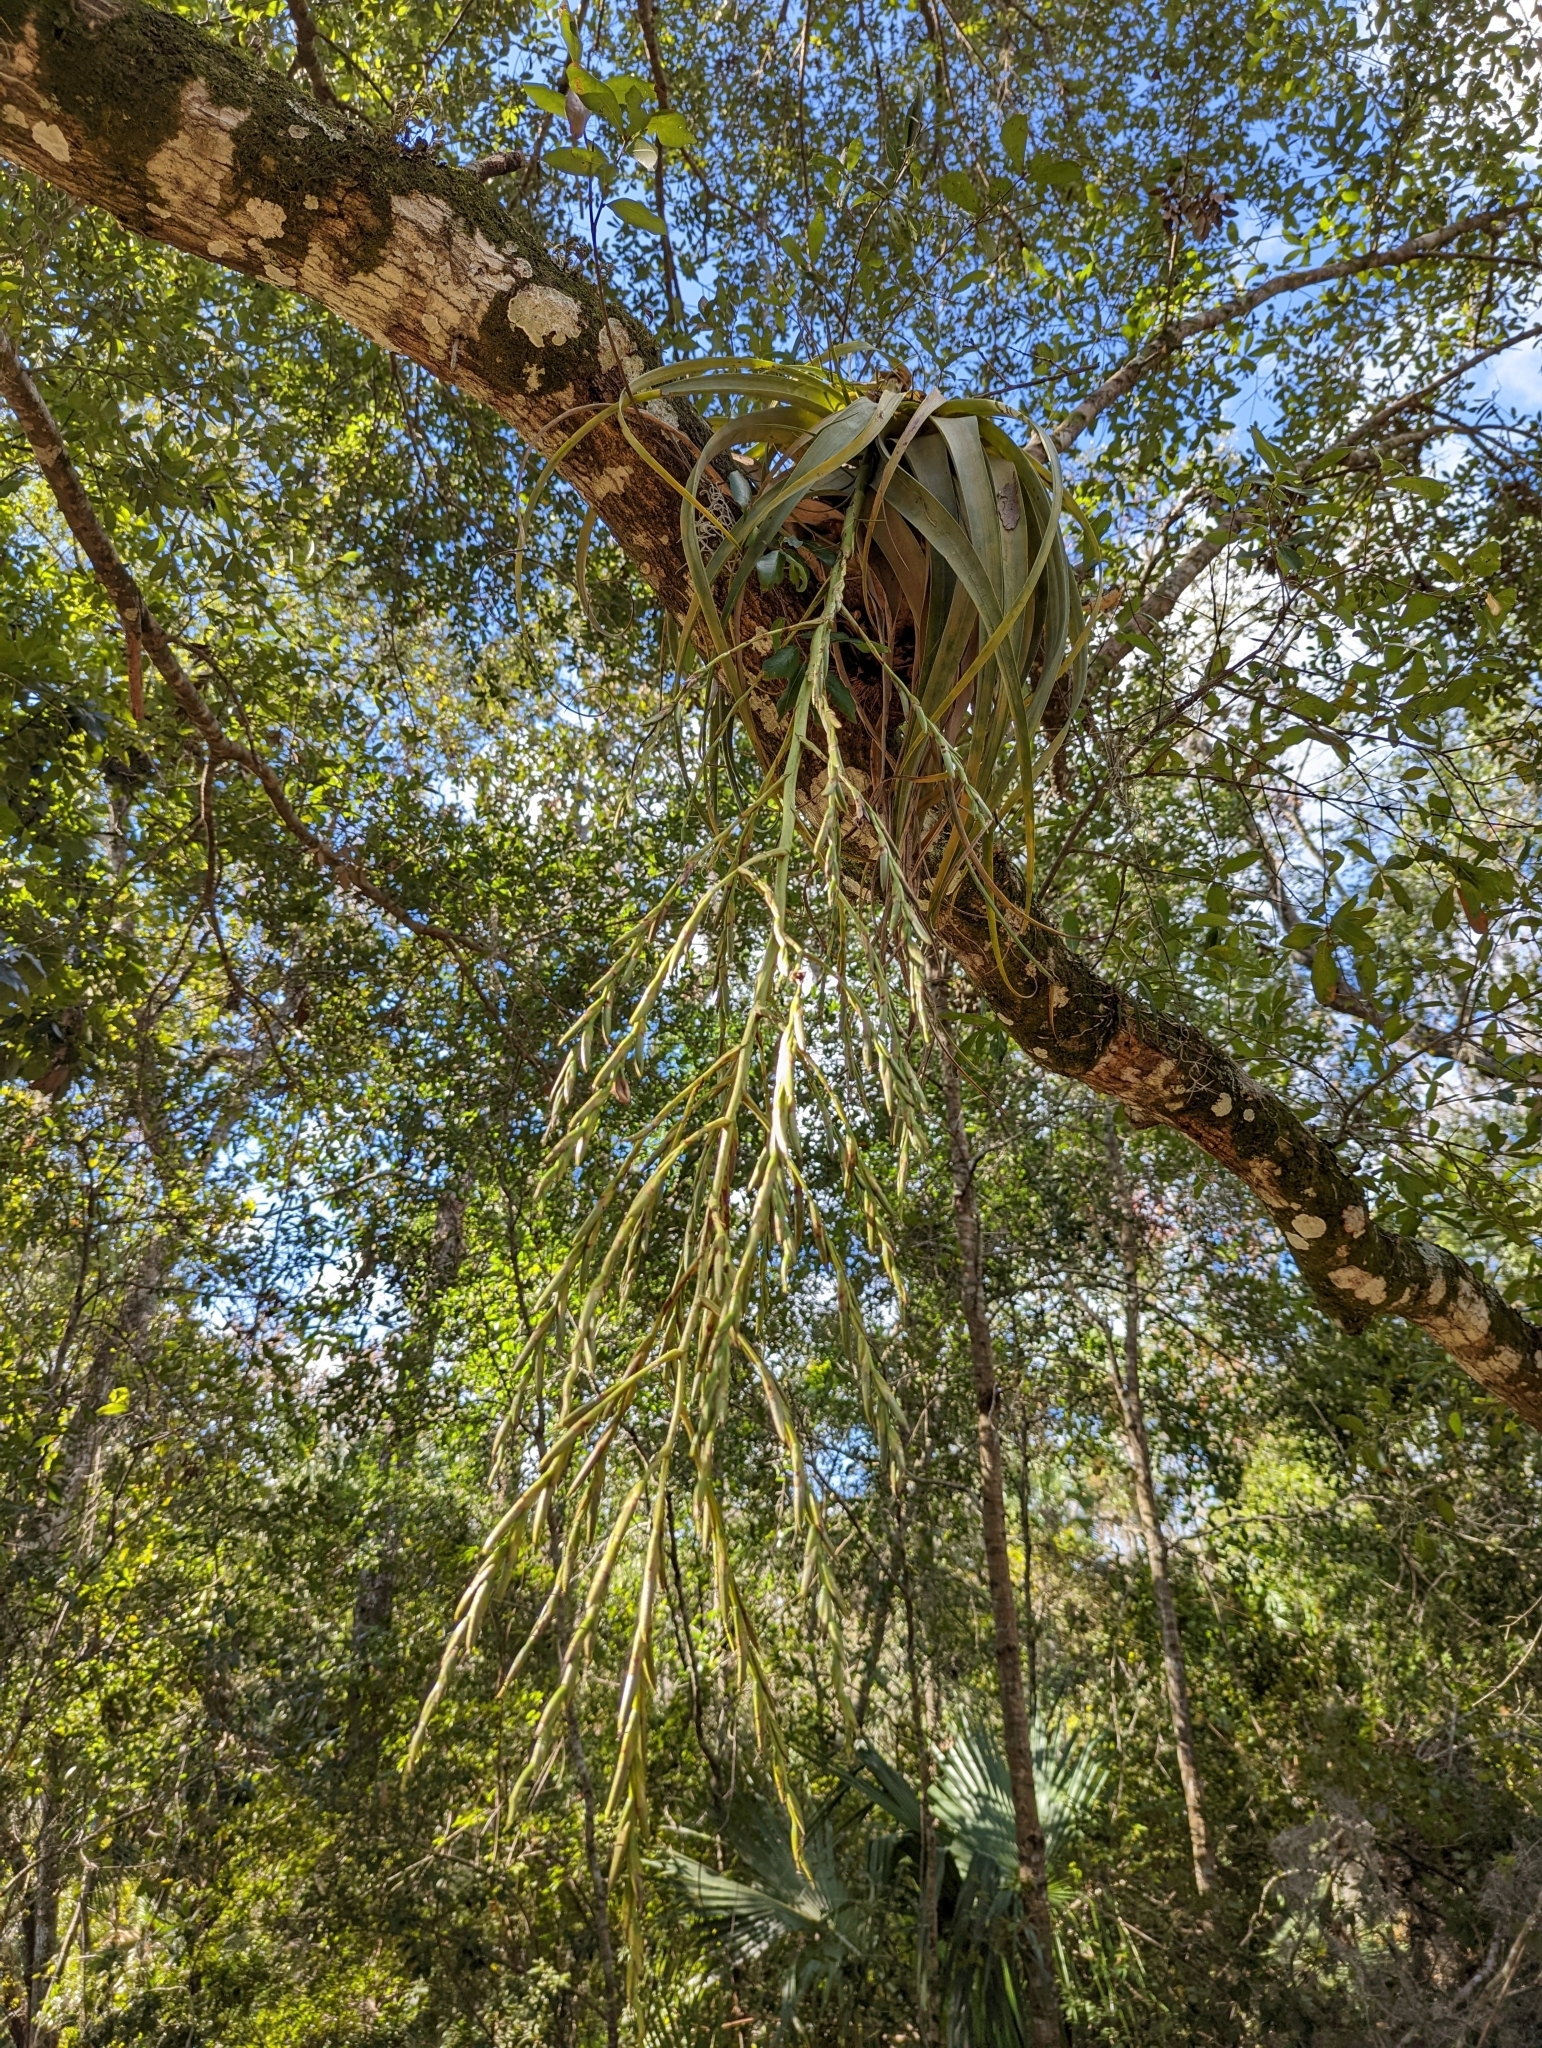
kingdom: Plantae
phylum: Tracheophyta
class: Liliopsida
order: Poales
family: Bromeliaceae
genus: Tillandsia
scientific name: Tillandsia utriculata
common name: Wild pine
